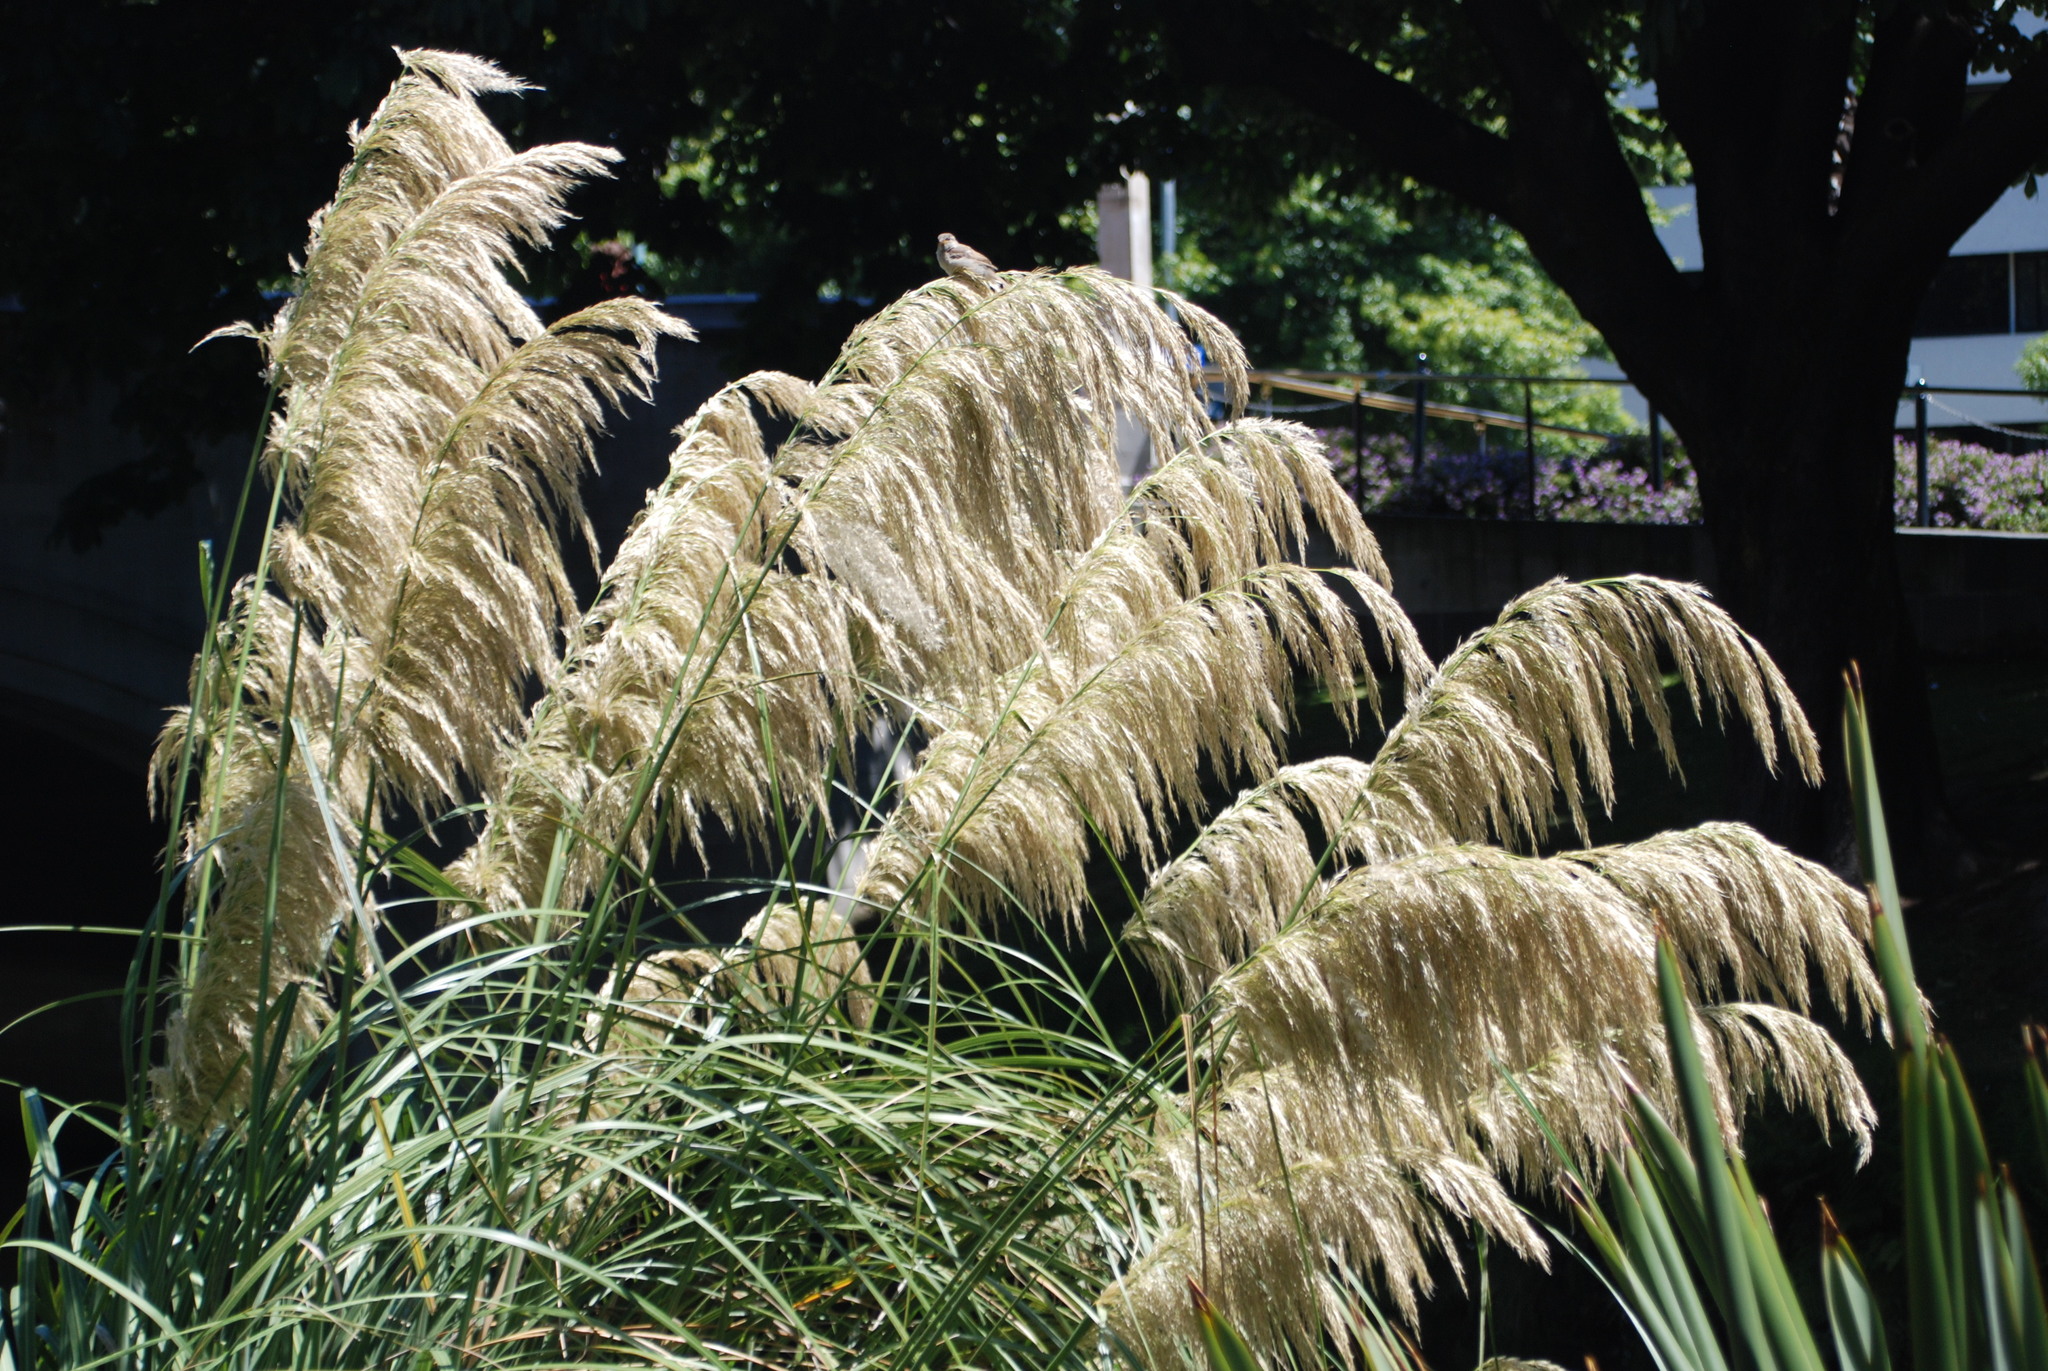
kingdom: Animalia
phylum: Chordata
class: Aves
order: Passeriformes
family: Passeridae
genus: Passer
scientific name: Passer domesticus
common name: House sparrow
